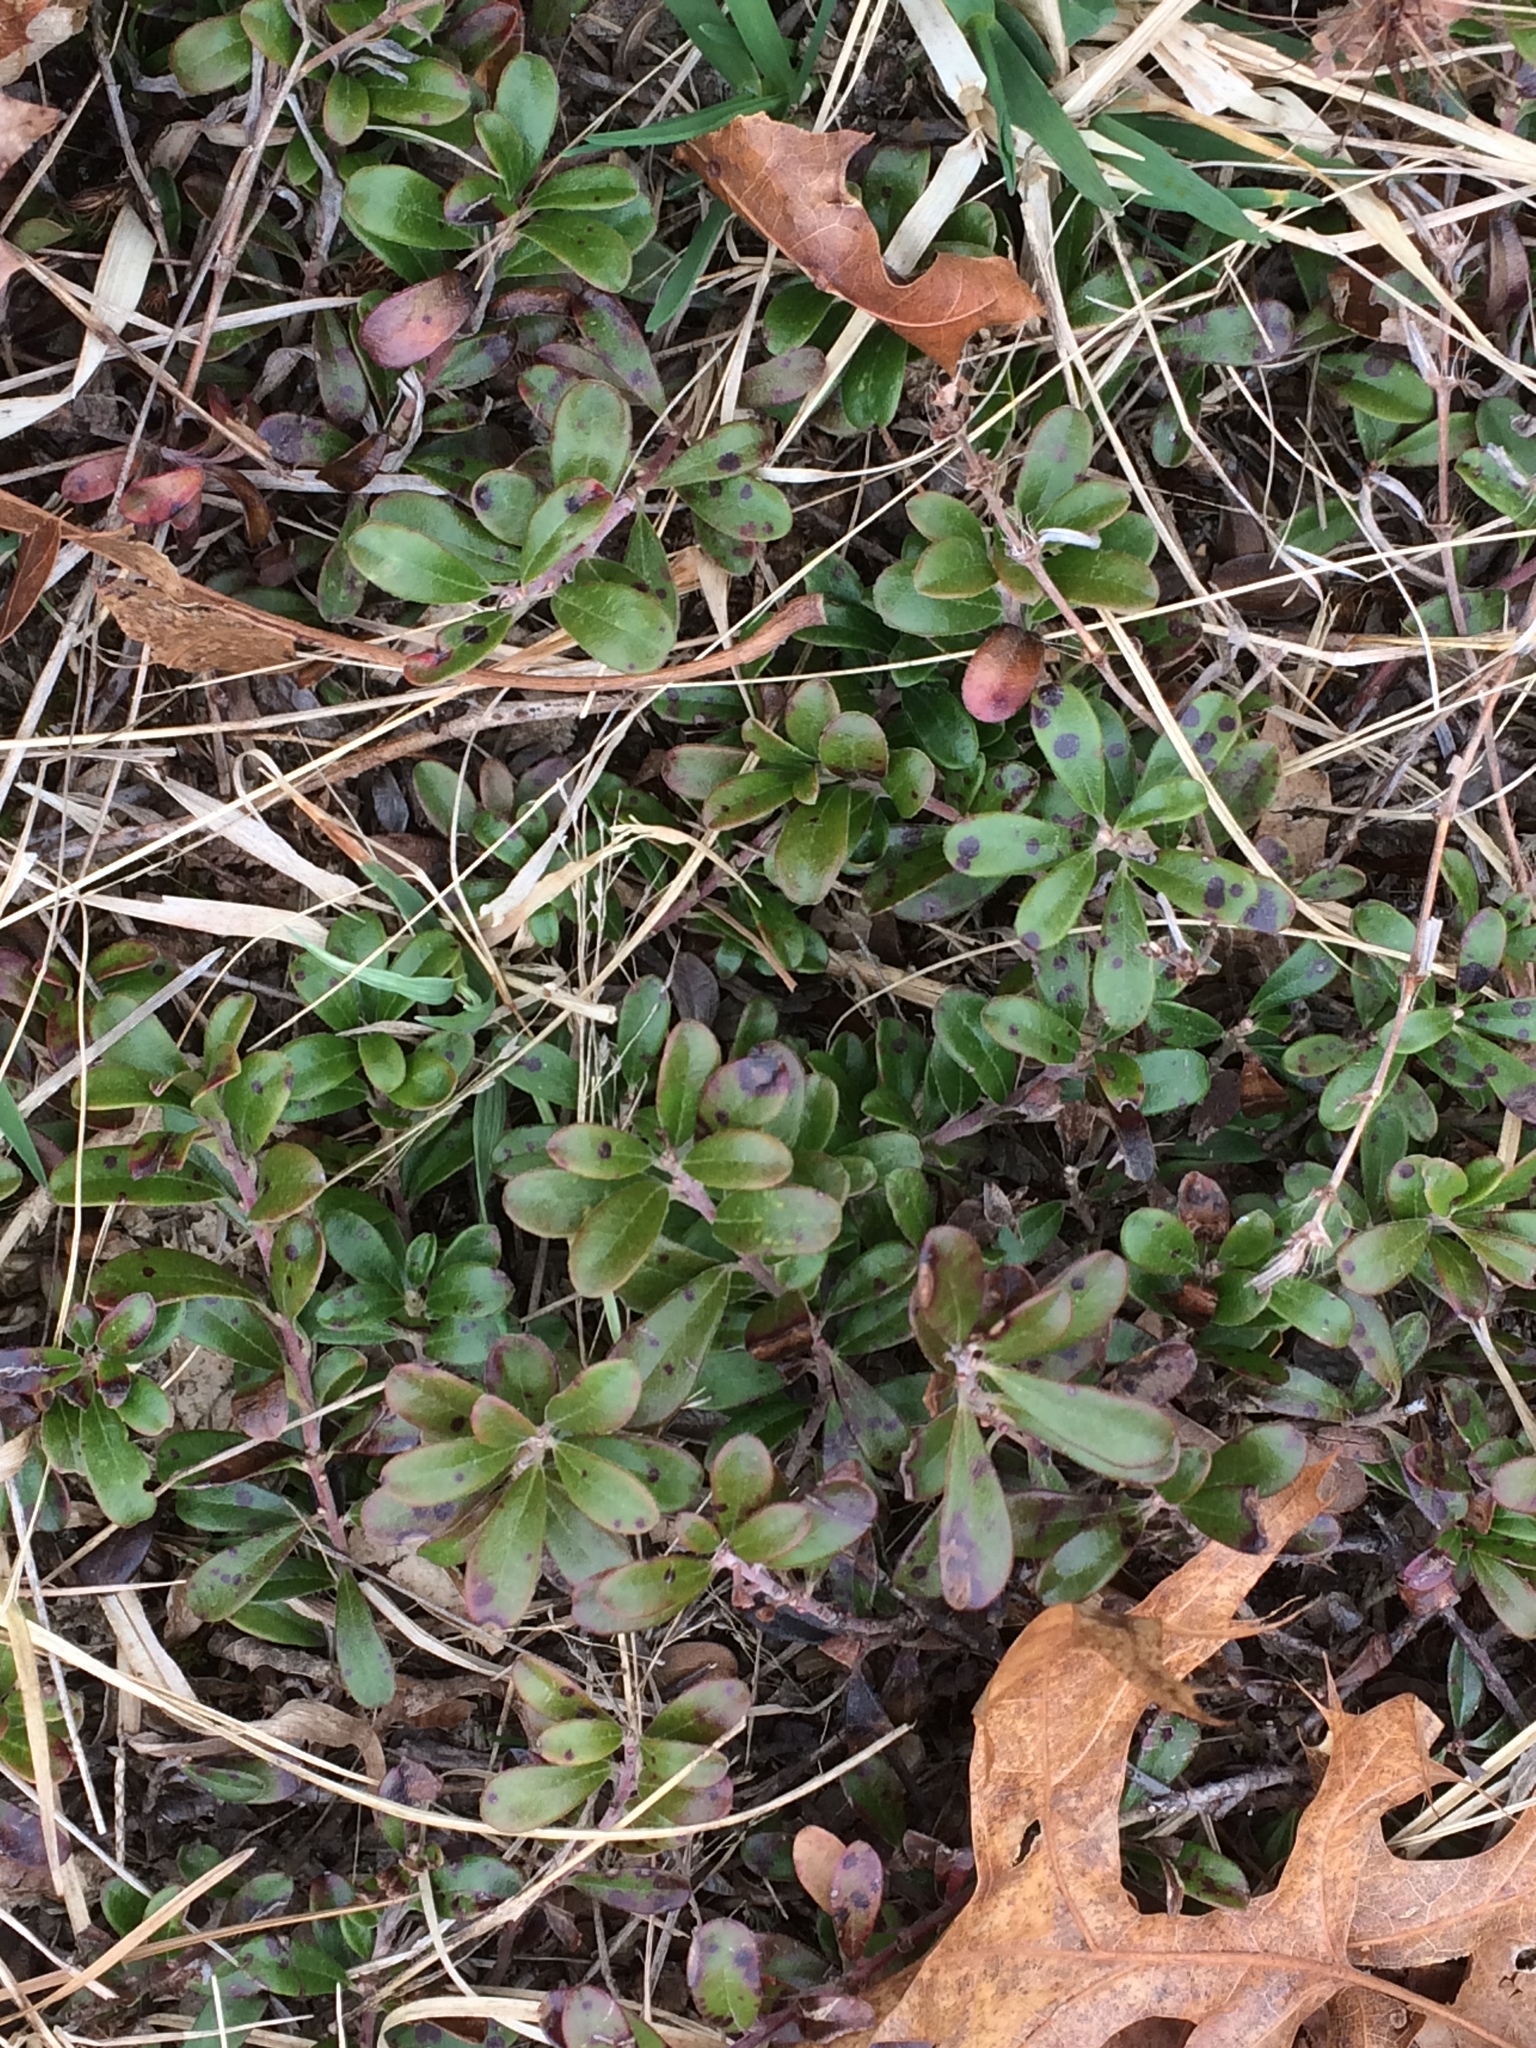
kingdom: Plantae
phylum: Tracheophyta
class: Magnoliopsida
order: Ericales
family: Ericaceae
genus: Arctostaphylos
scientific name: Arctostaphylos uva-ursi
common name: Bearberry
